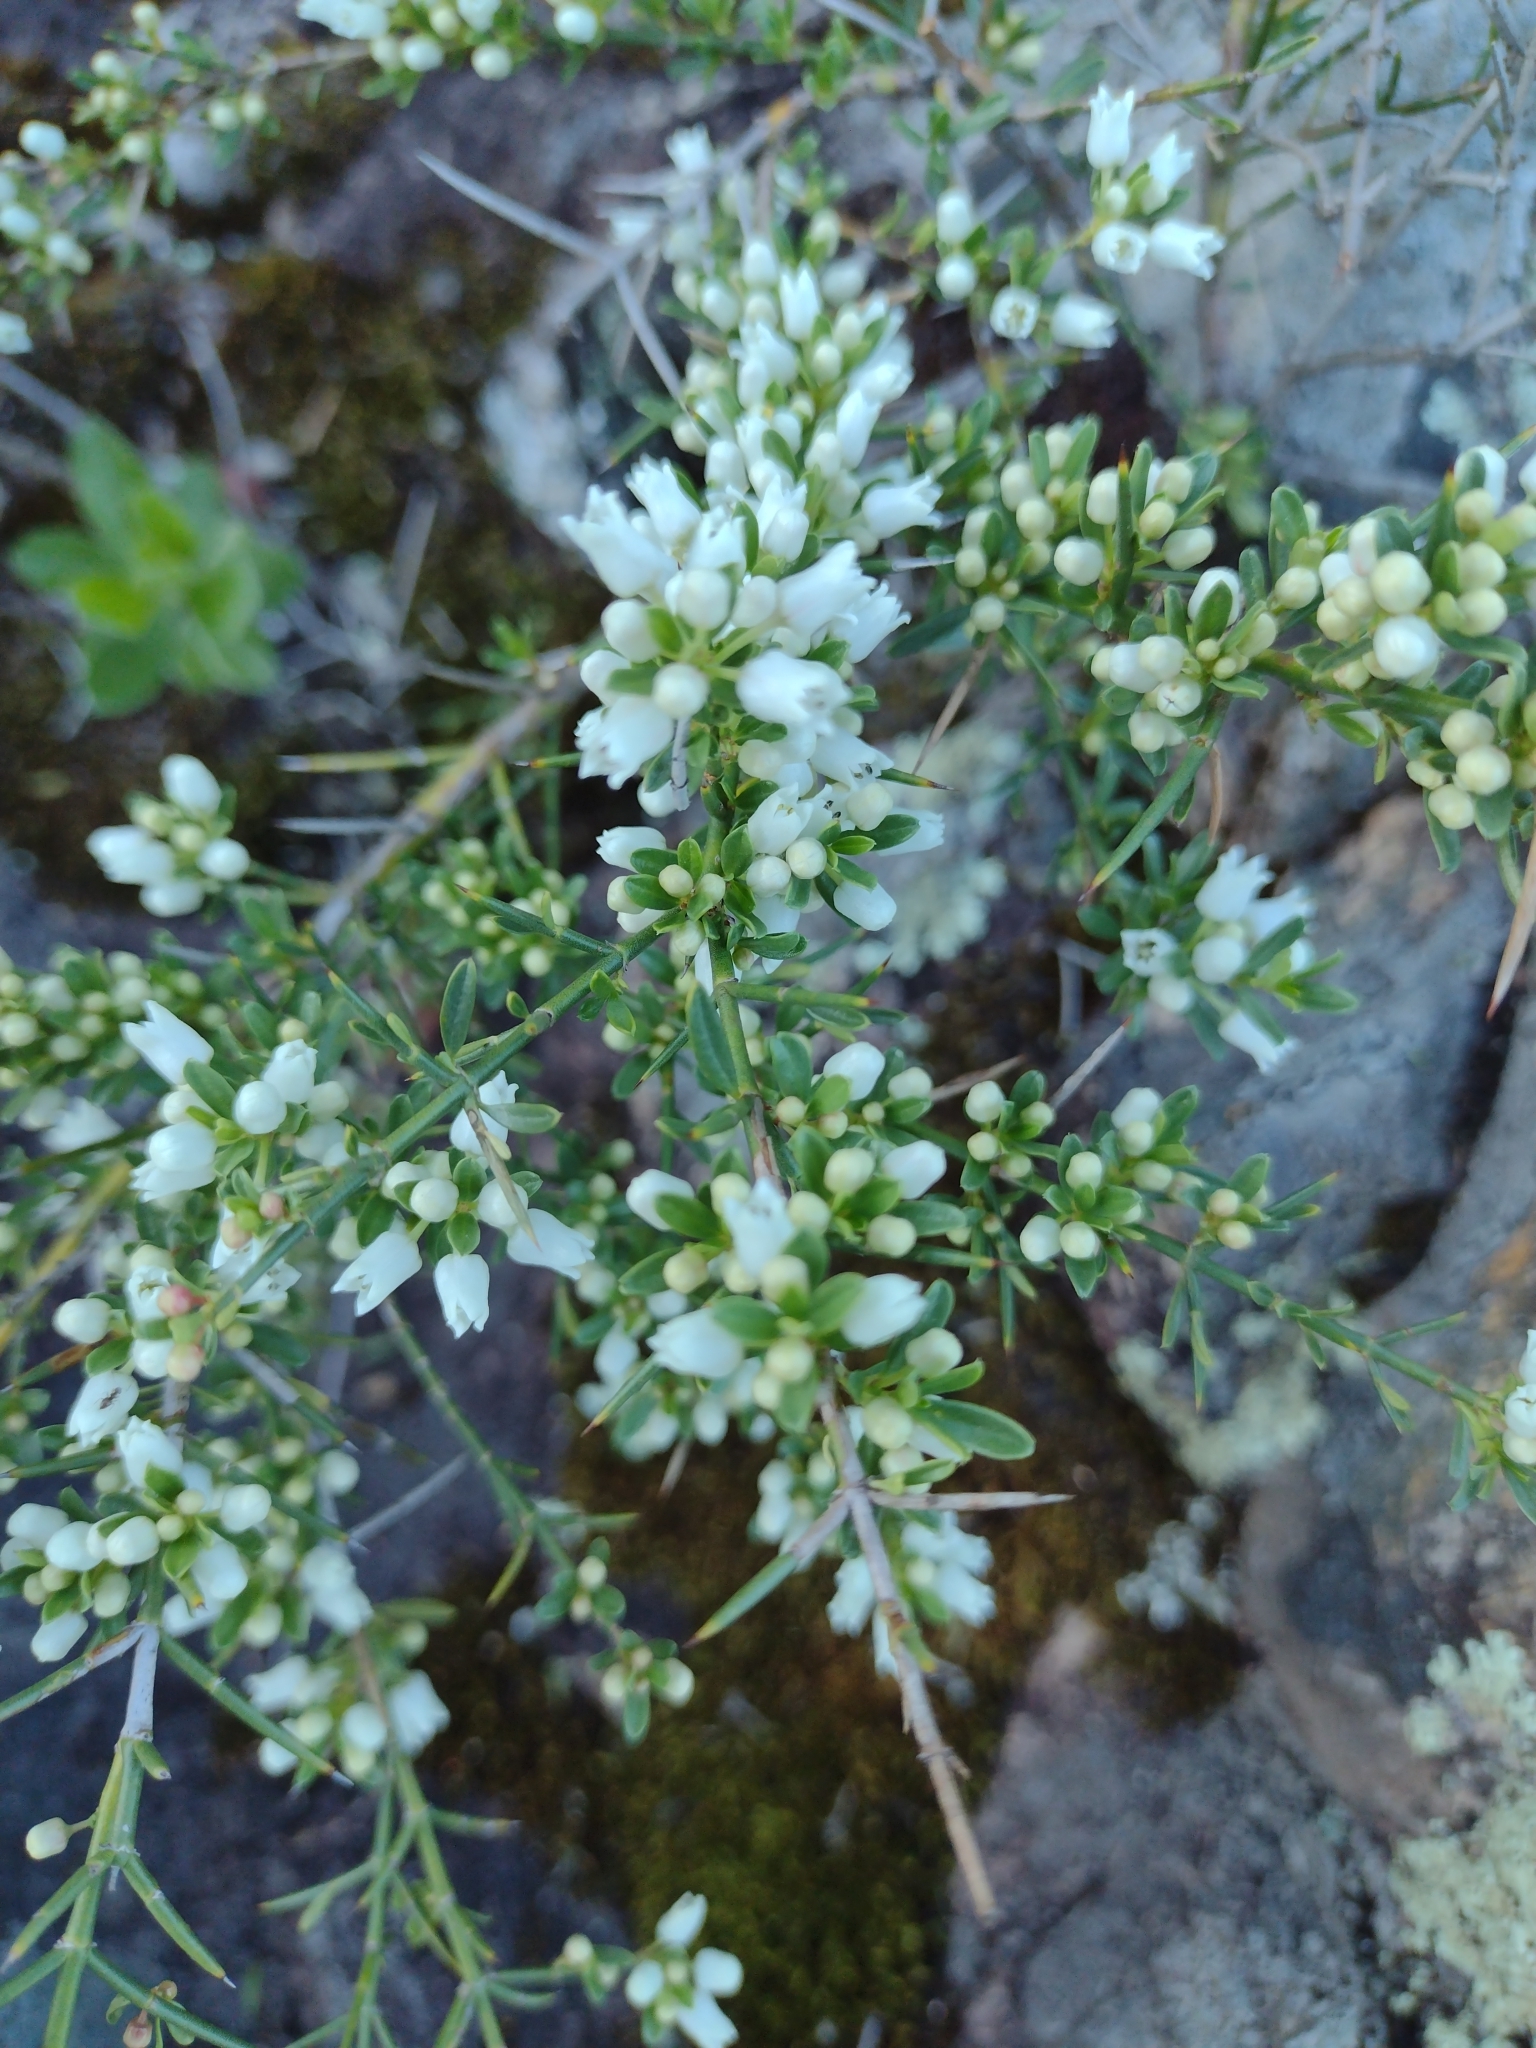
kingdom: Plantae
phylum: Tracheophyta
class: Magnoliopsida
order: Rosales
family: Rhamnaceae
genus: Discaria
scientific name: Discaria americana
